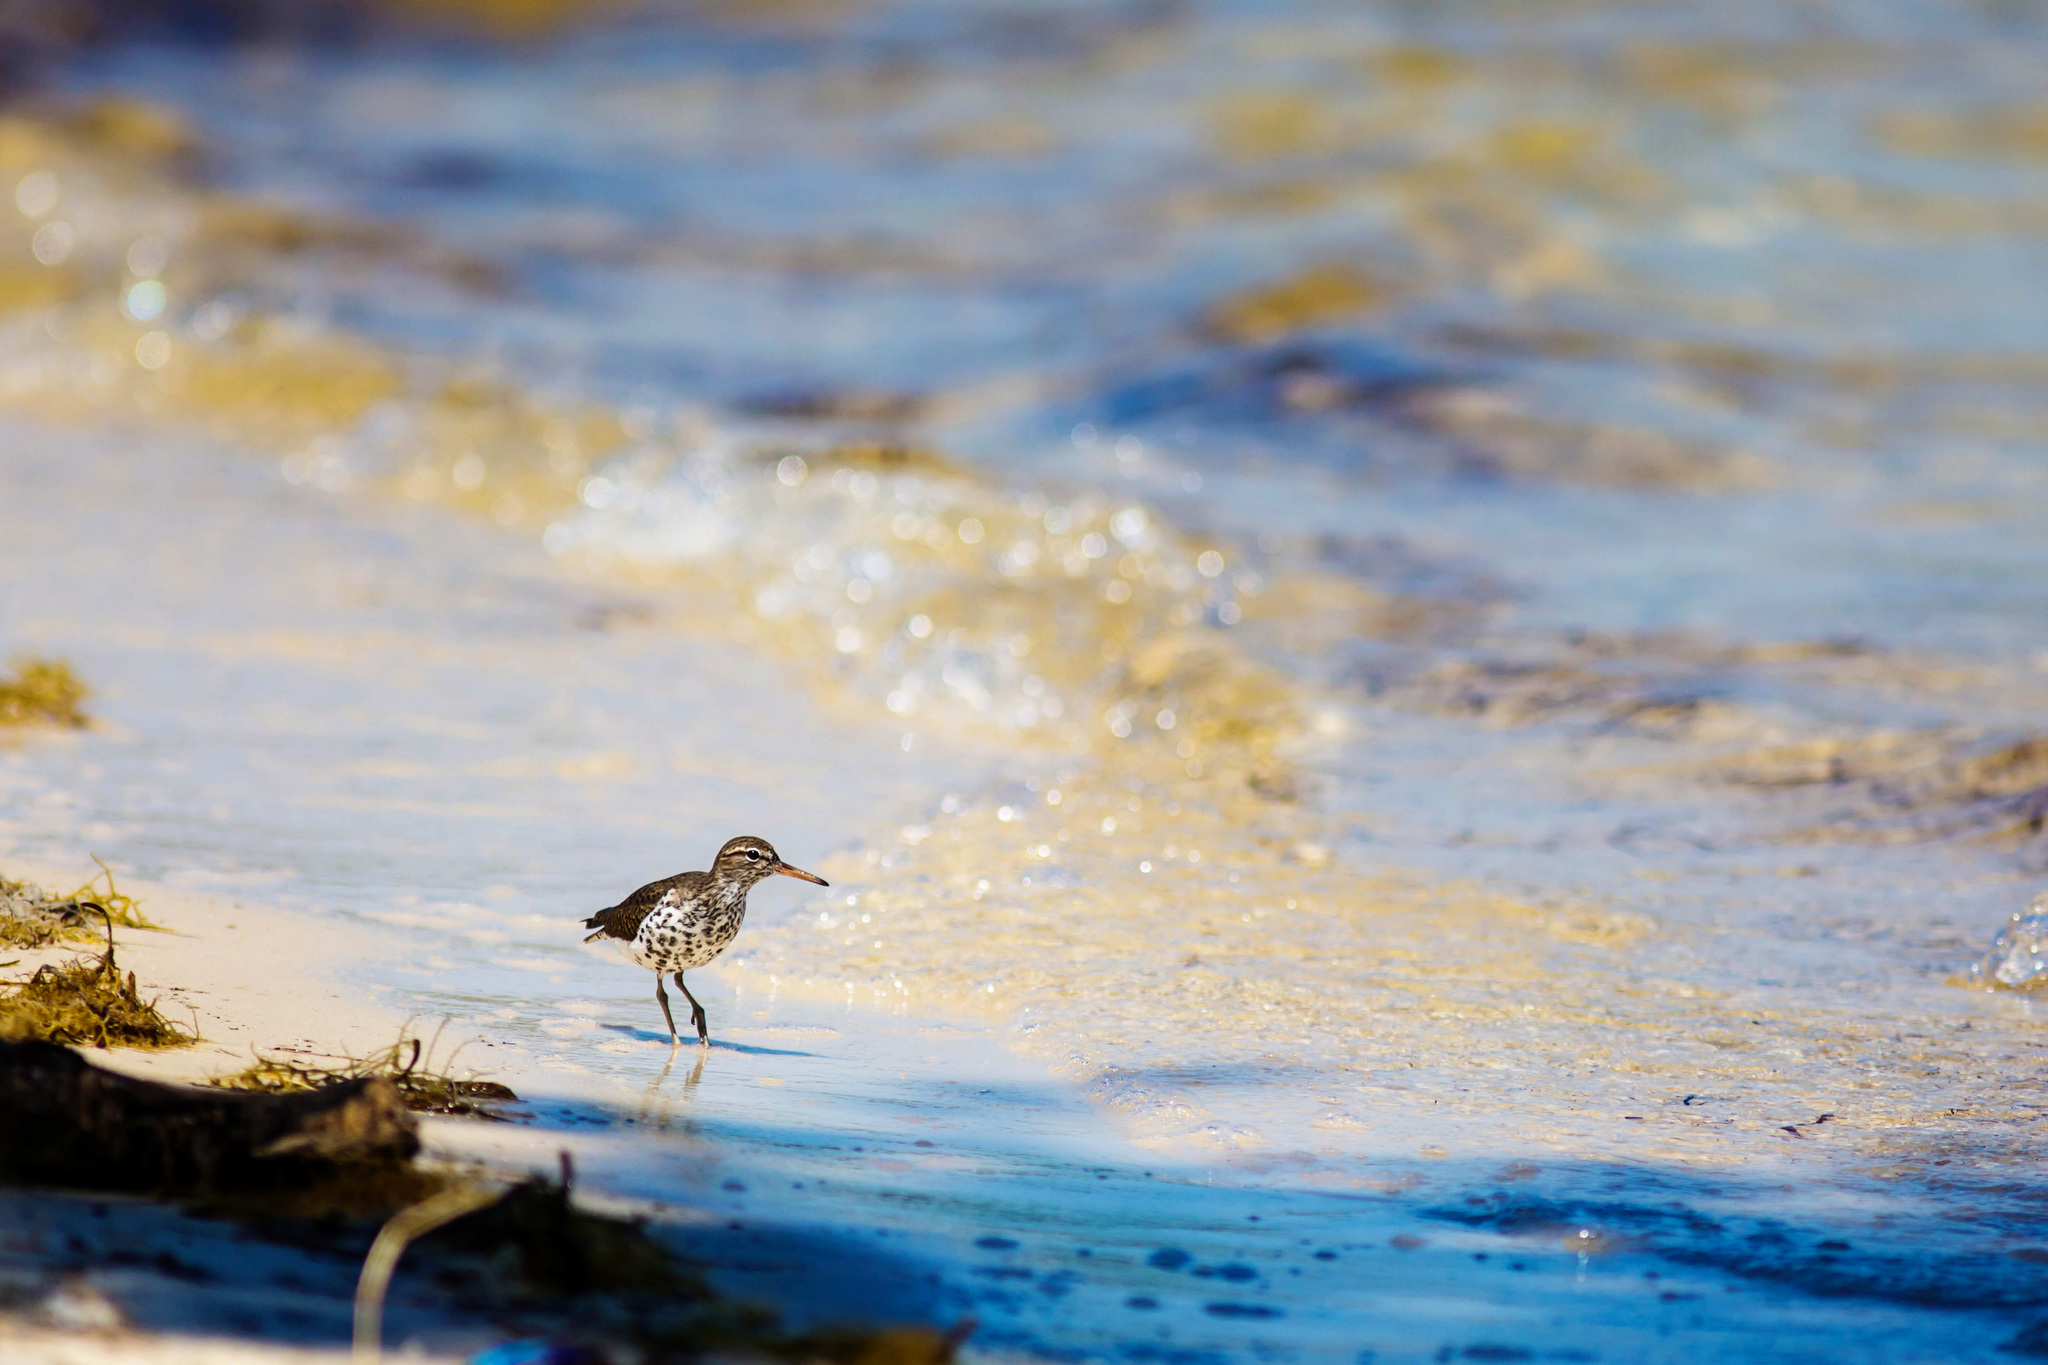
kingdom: Animalia
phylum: Chordata
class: Aves
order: Charadriiformes
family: Scolopacidae
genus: Actitis
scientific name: Actitis macularius
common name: Spotted sandpiper
